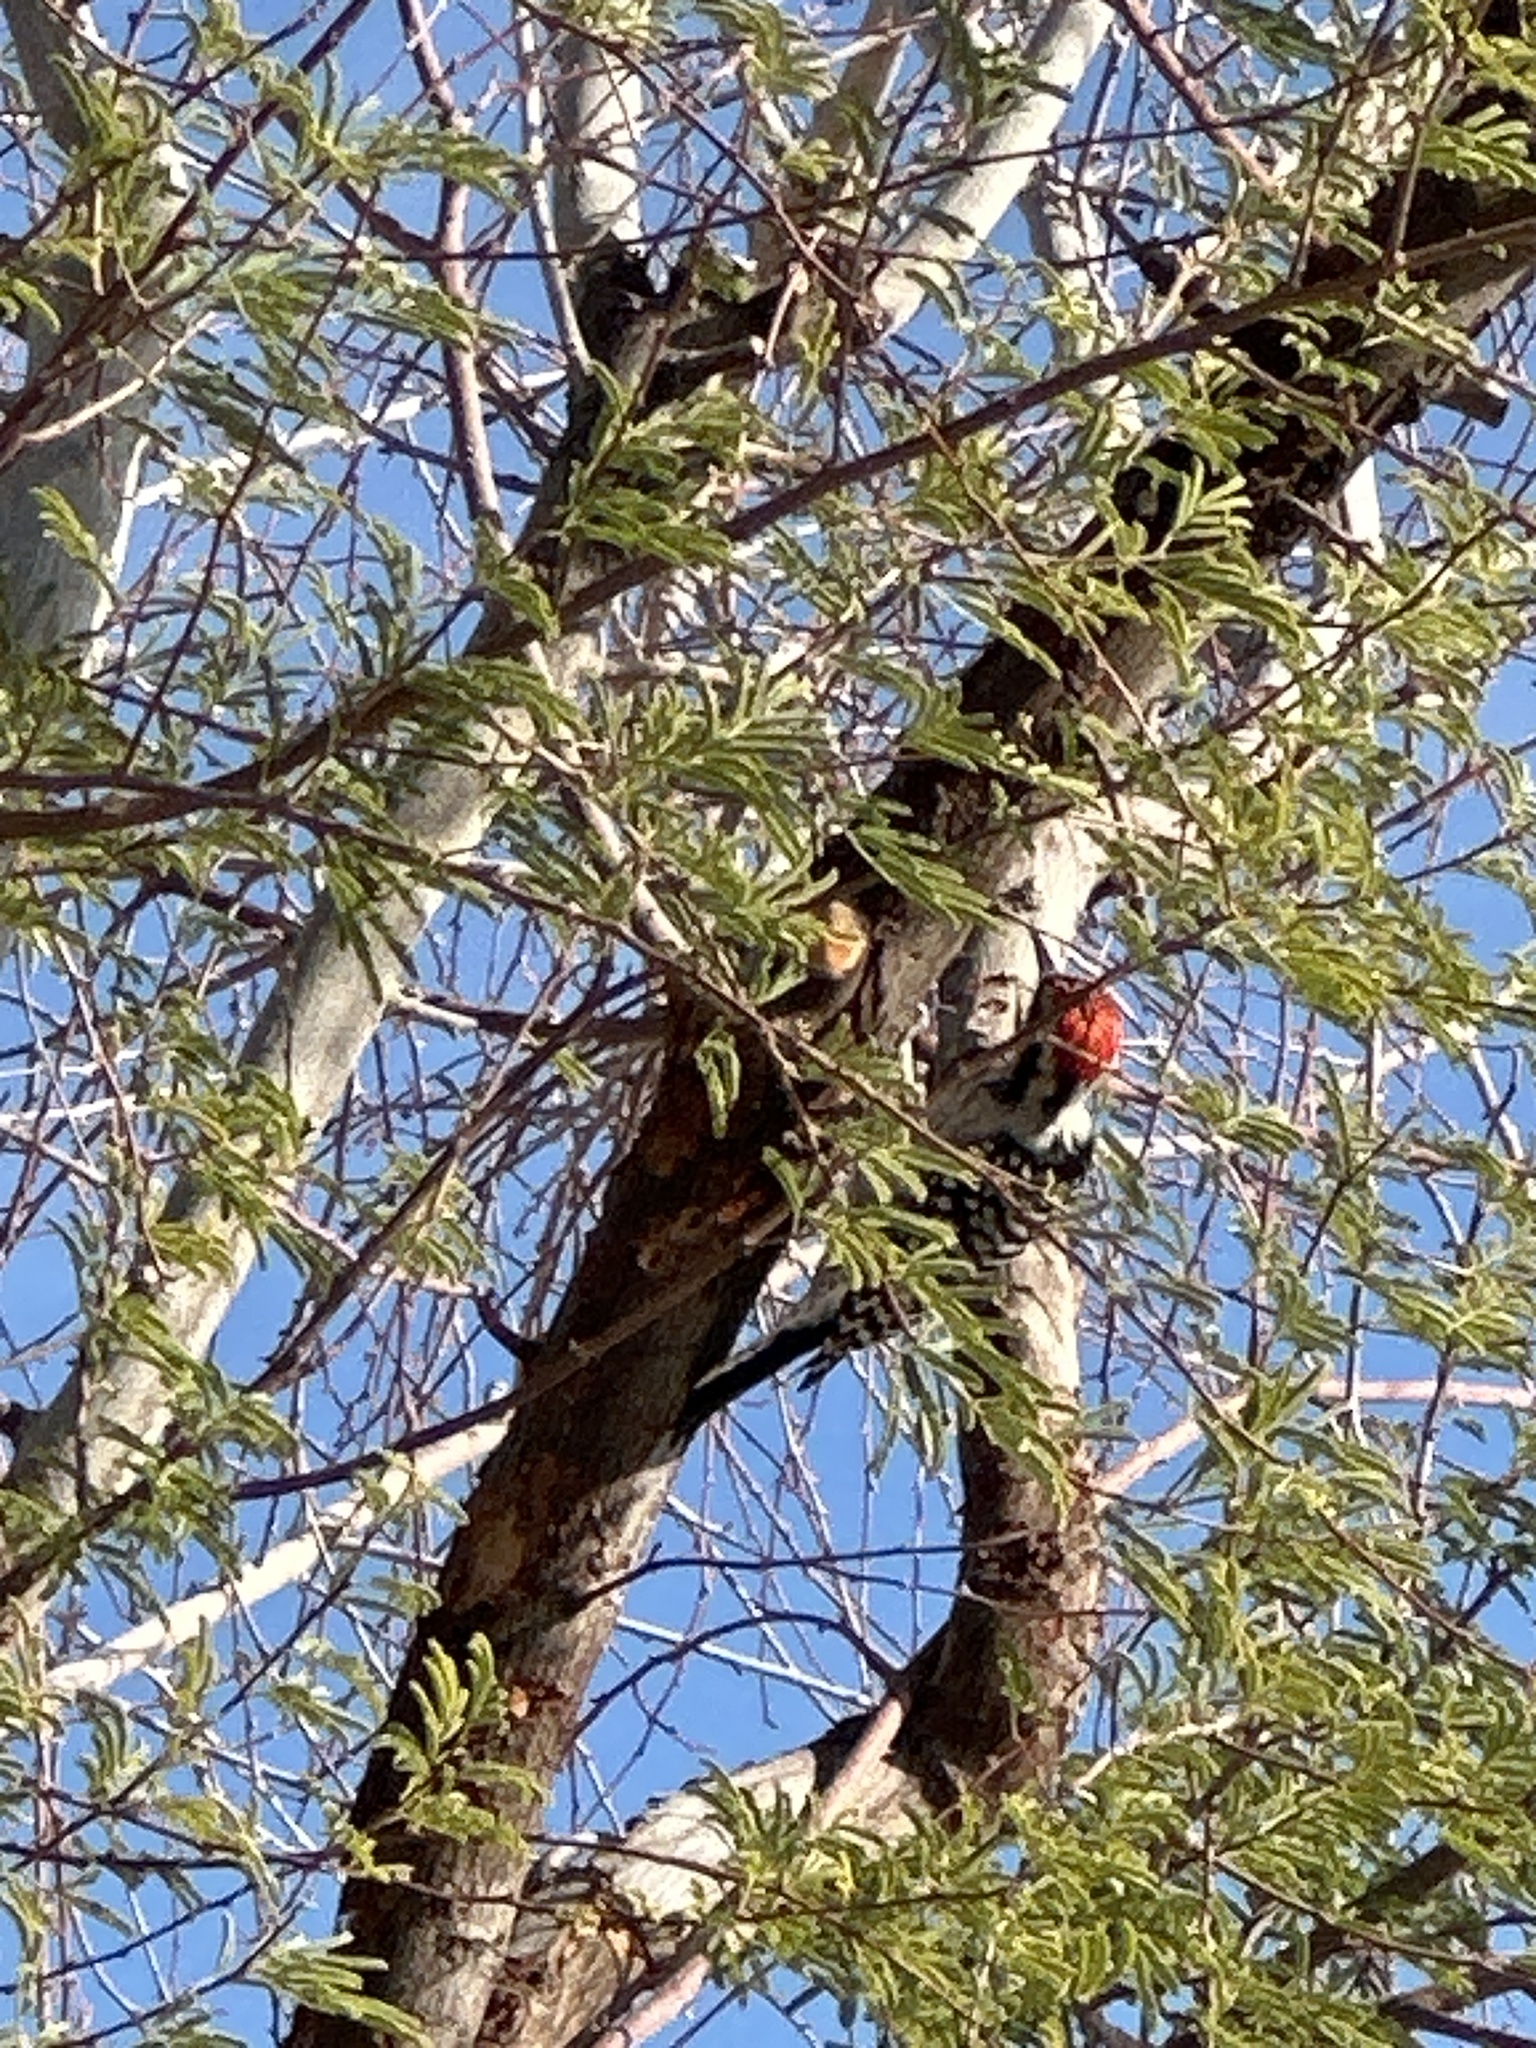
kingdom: Animalia
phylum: Chordata
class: Aves
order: Piciformes
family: Picidae
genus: Dryobates
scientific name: Dryobates nuttallii
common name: Nuttall's woodpecker
